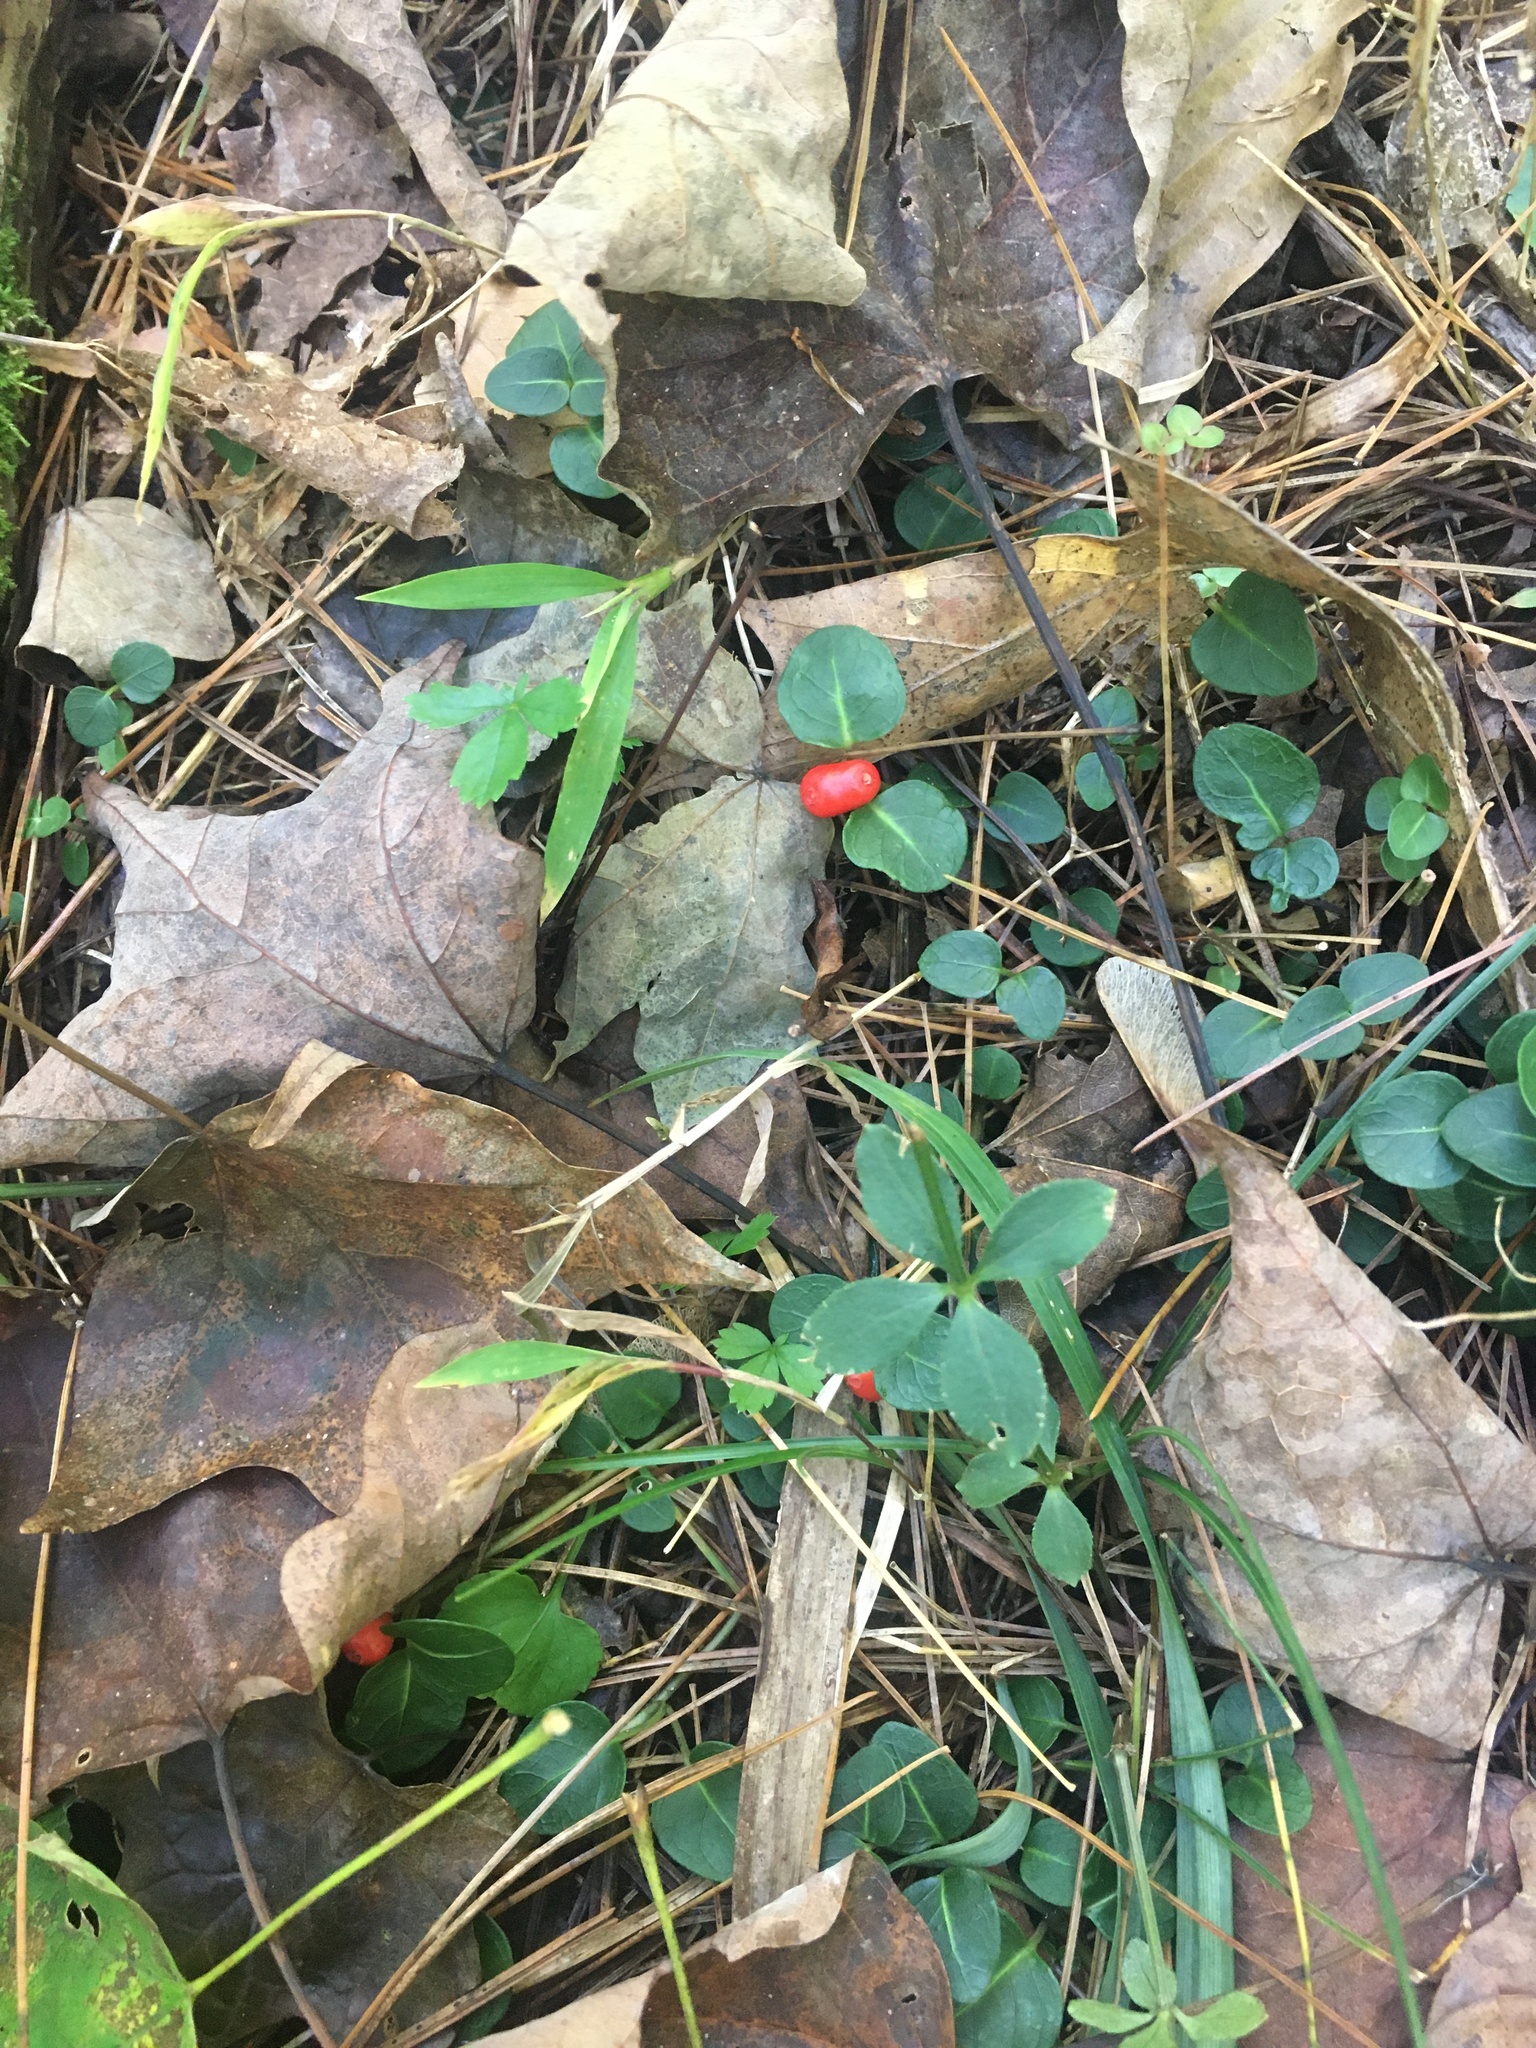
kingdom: Plantae
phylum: Tracheophyta
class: Magnoliopsida
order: Gentianales
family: Rubiaceae
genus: Mitchella
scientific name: Mitchella repens
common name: Partridge-berry
